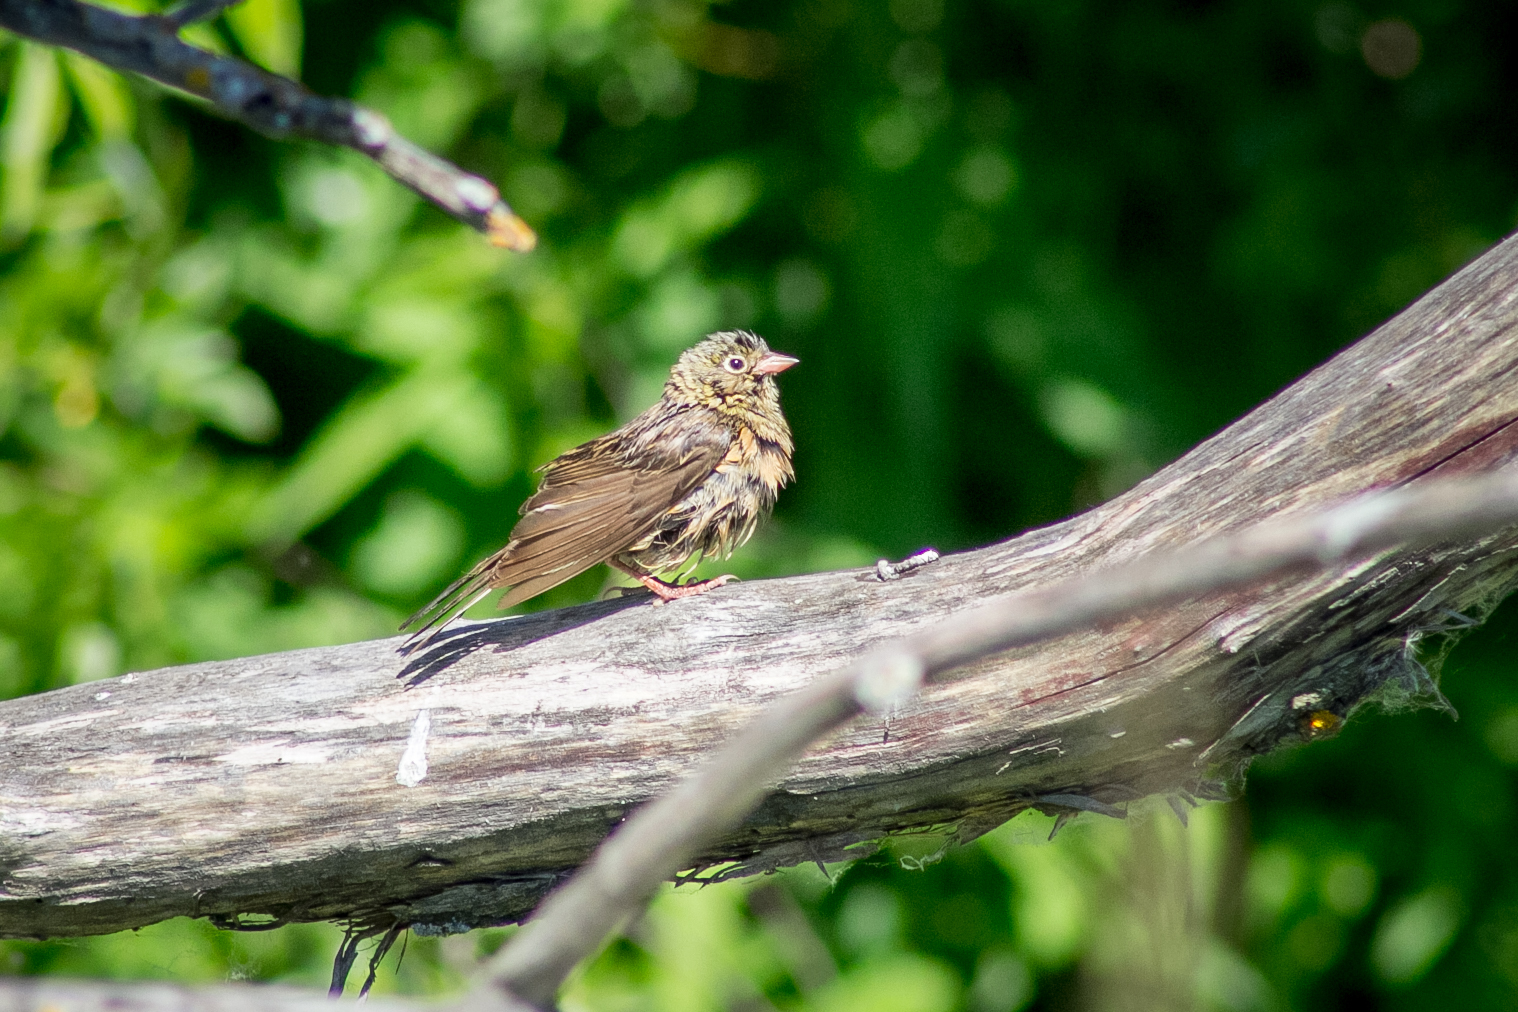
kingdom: Animalia
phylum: Chordata
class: Aves
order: Passeriformes
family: Emberizidae
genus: Emberiza
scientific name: Emberiza hortulana
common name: Ortolan bunting
